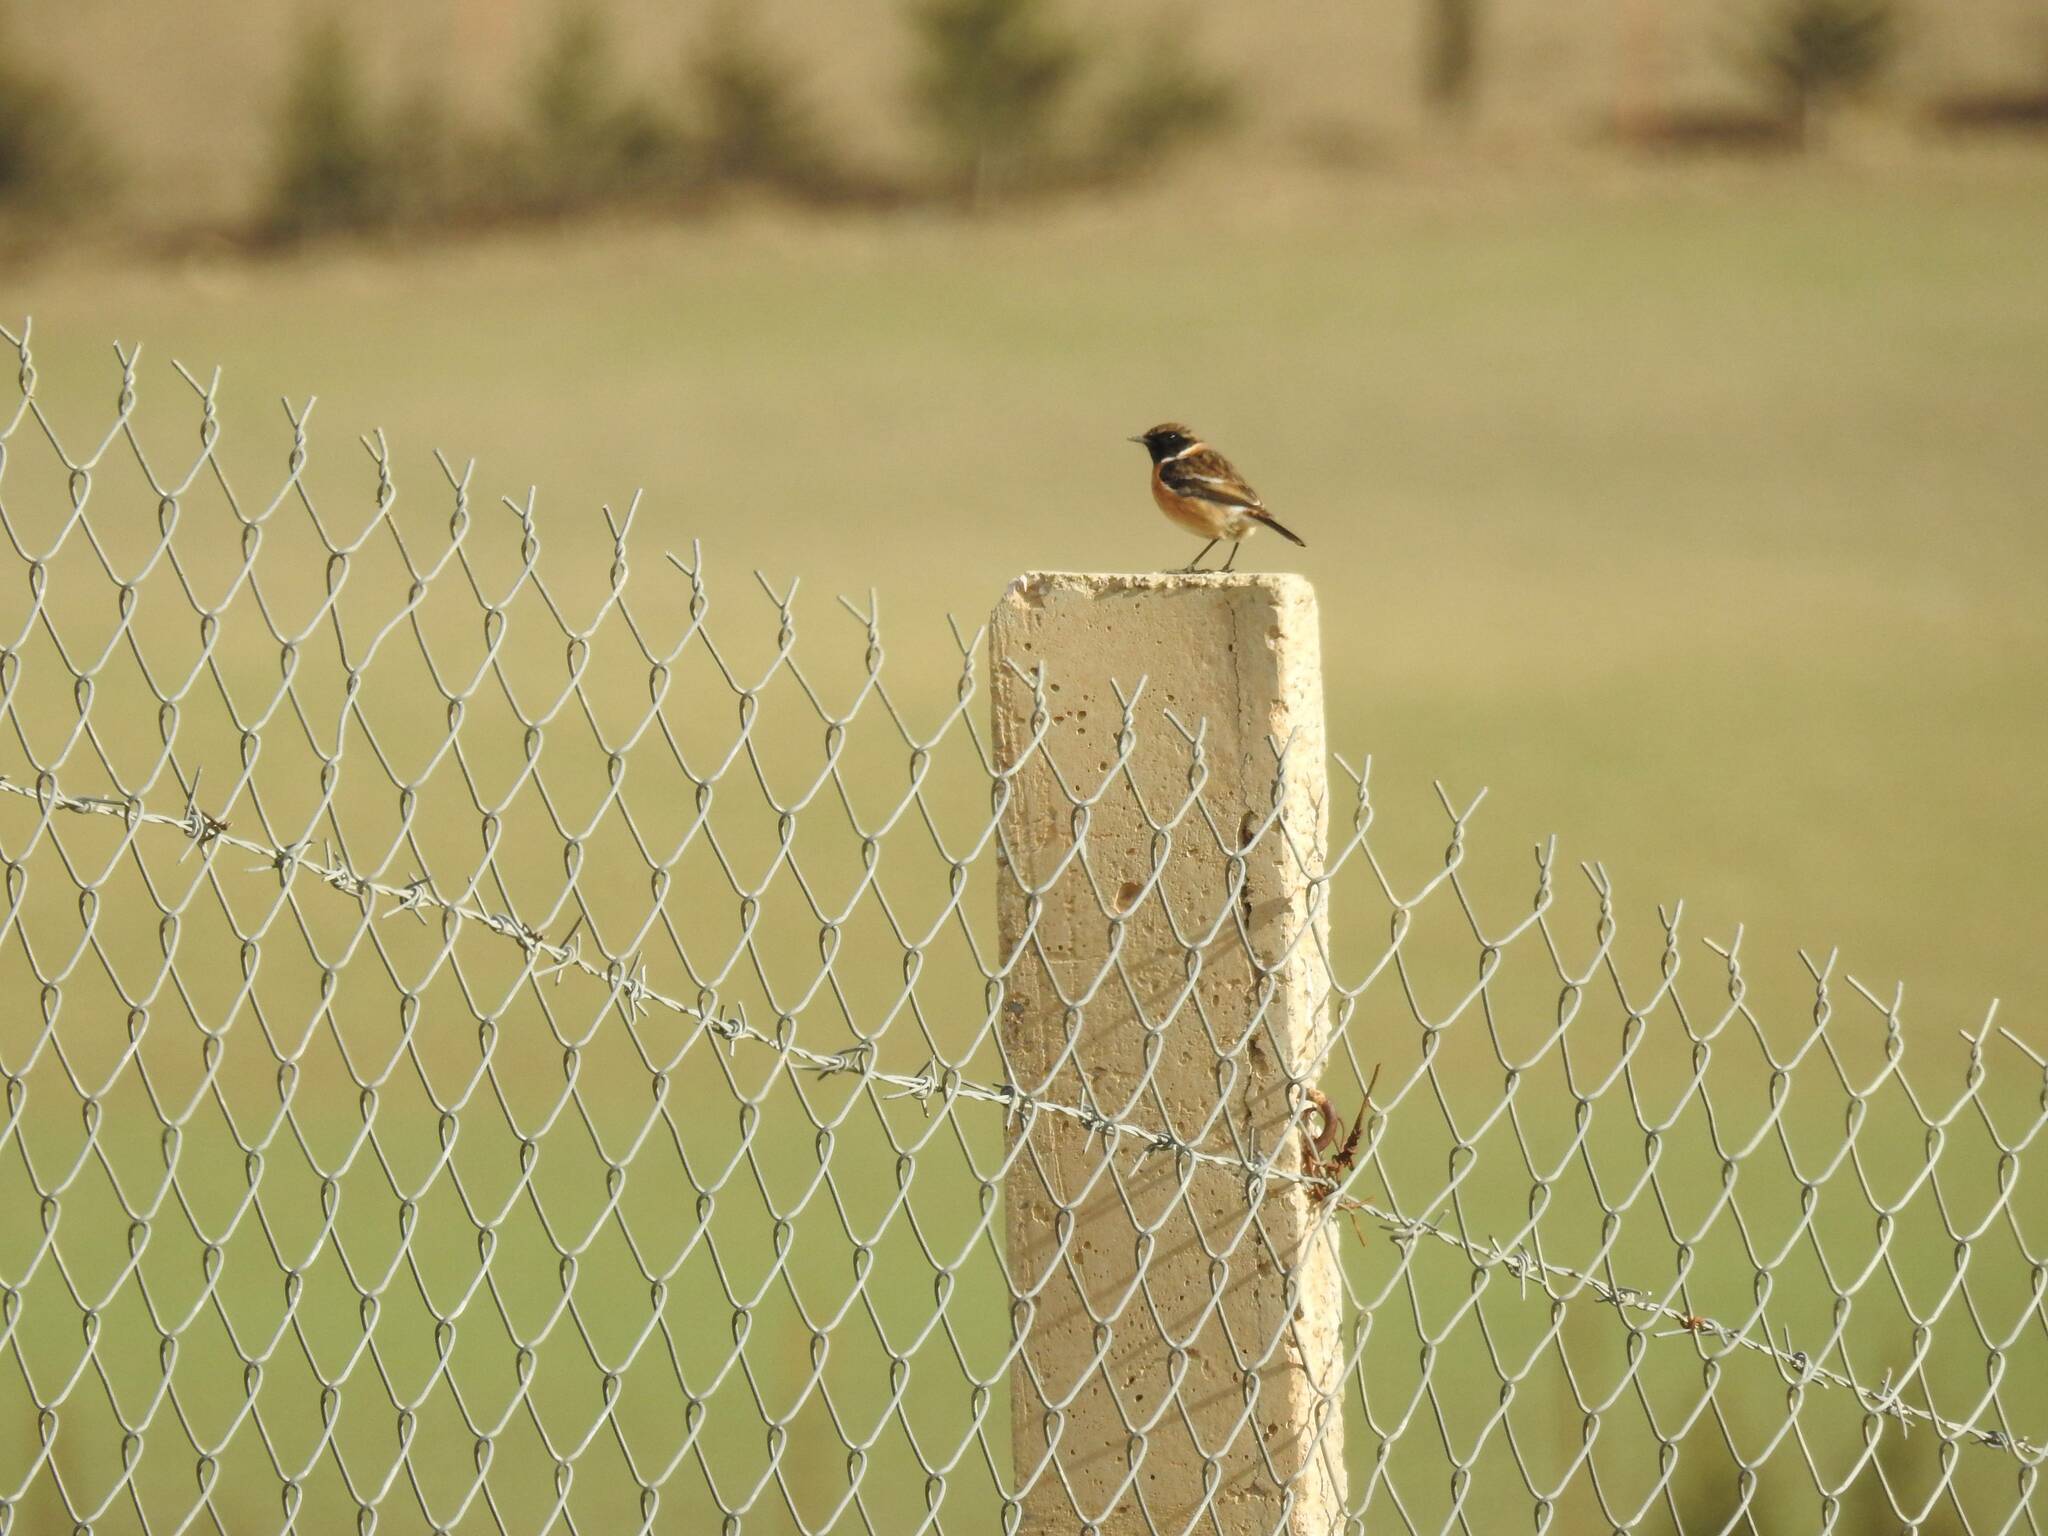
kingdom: Animalia
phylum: Chordata
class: Aves
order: Passeriformes
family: Muscicapidae
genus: Saxicola
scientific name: Saxicola rubicola
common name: European stonechat
